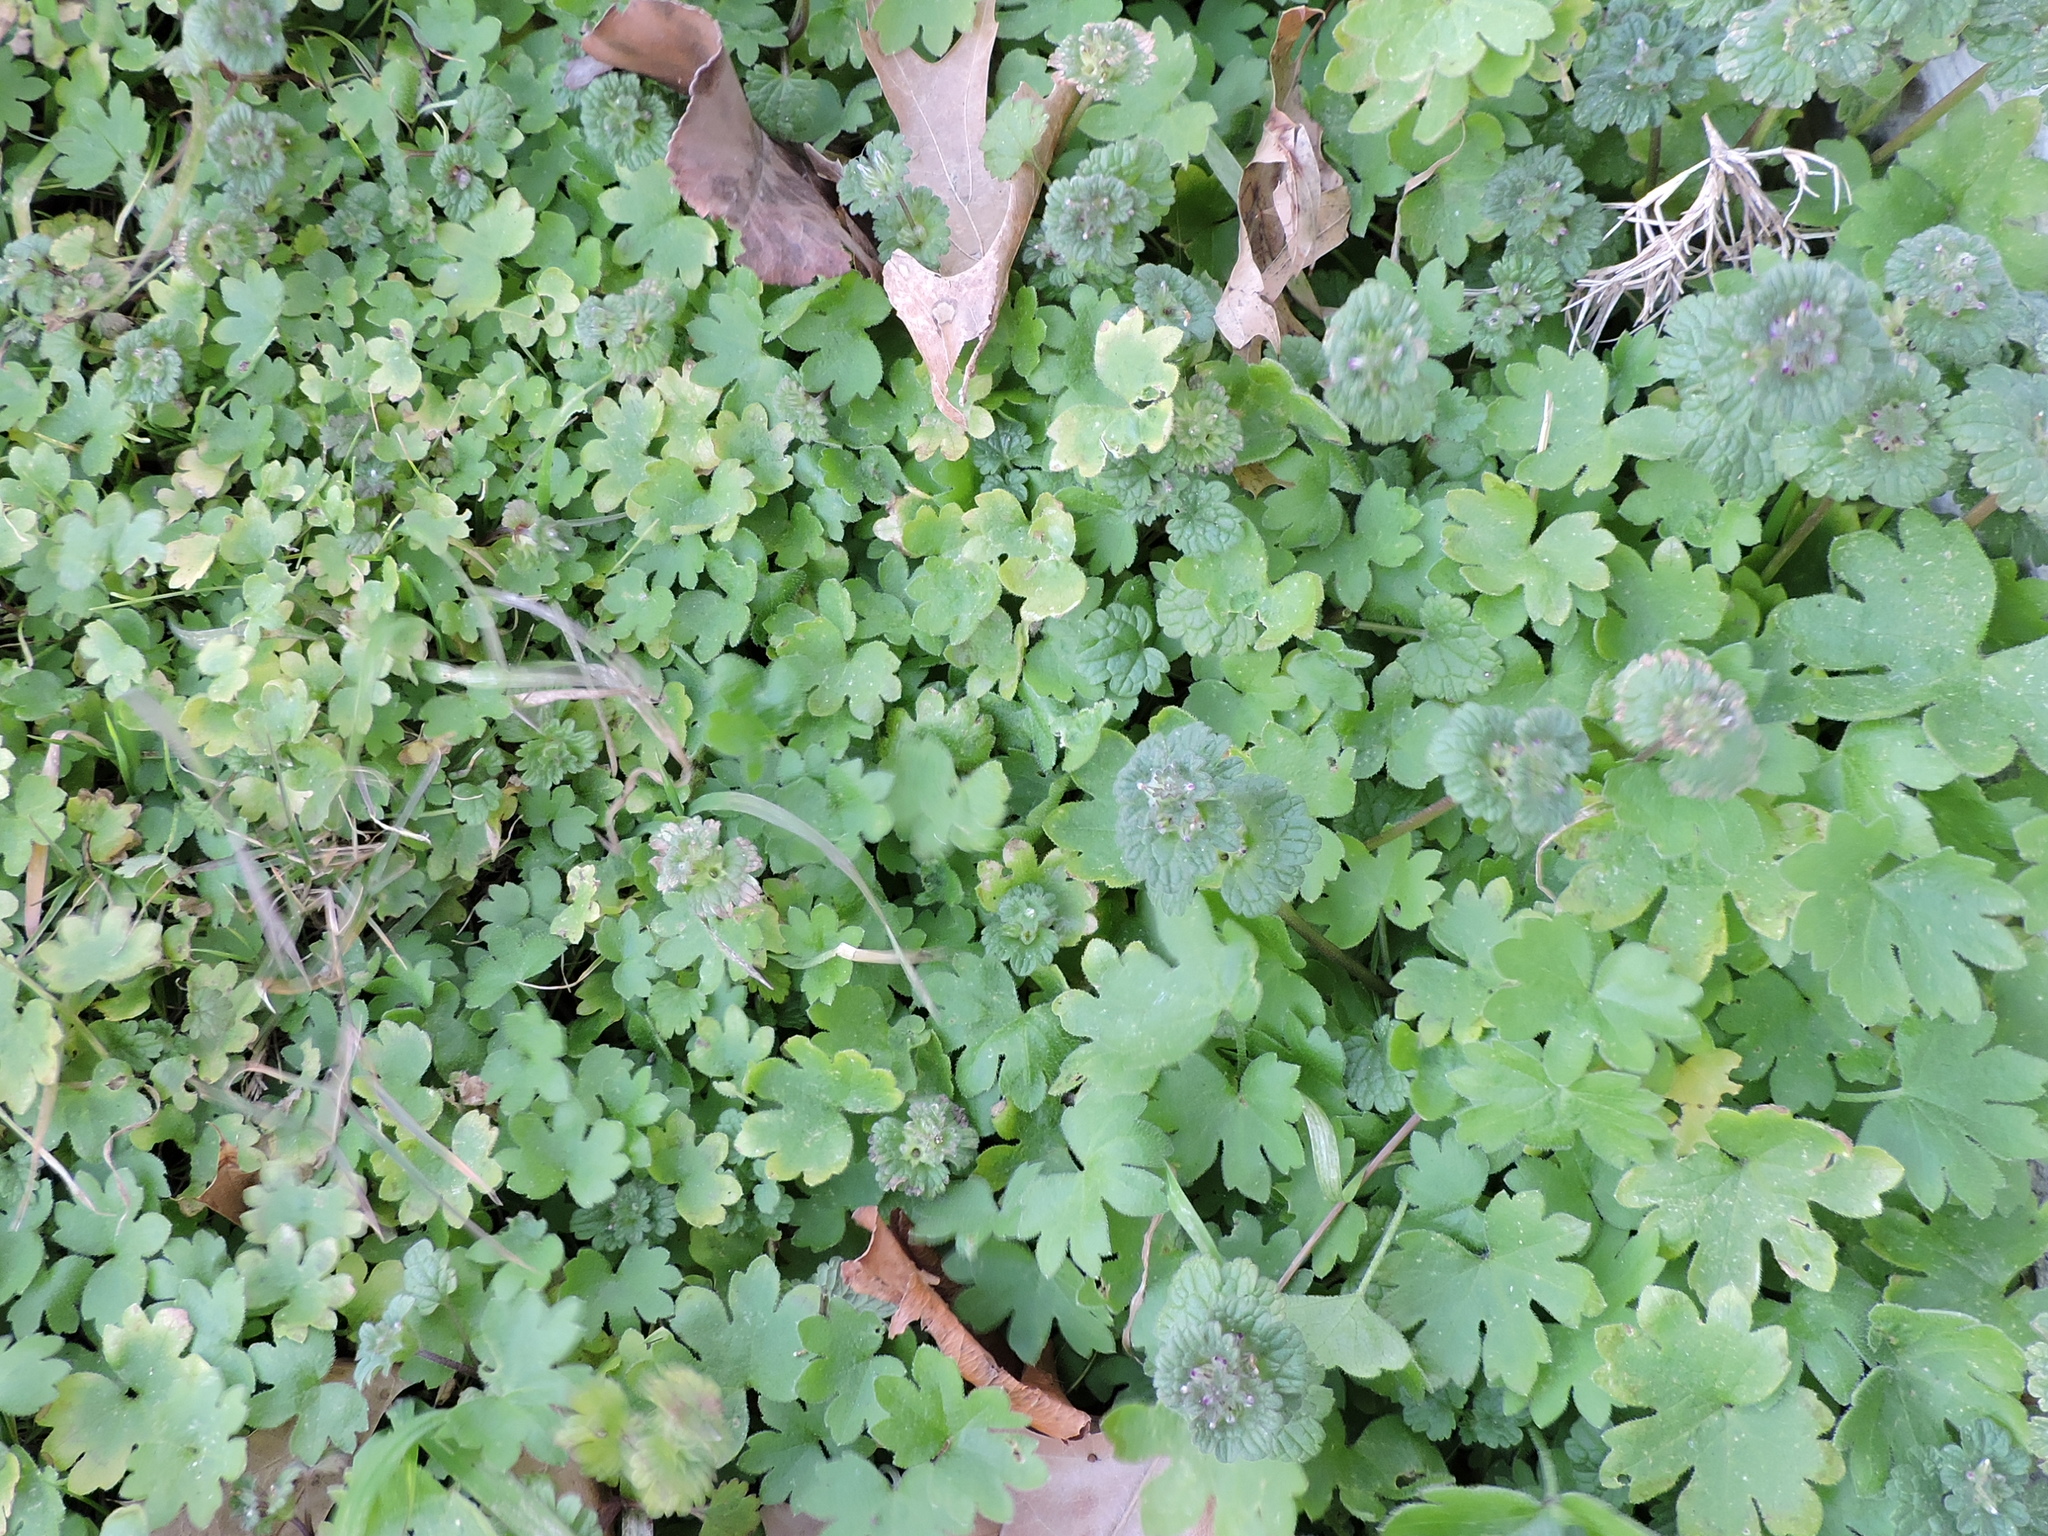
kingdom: Plantae
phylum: Tracheophyta
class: Magnoliopsida
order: Apiales
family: Apiaceae
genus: Bowlesia
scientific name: Bowlesia incana
